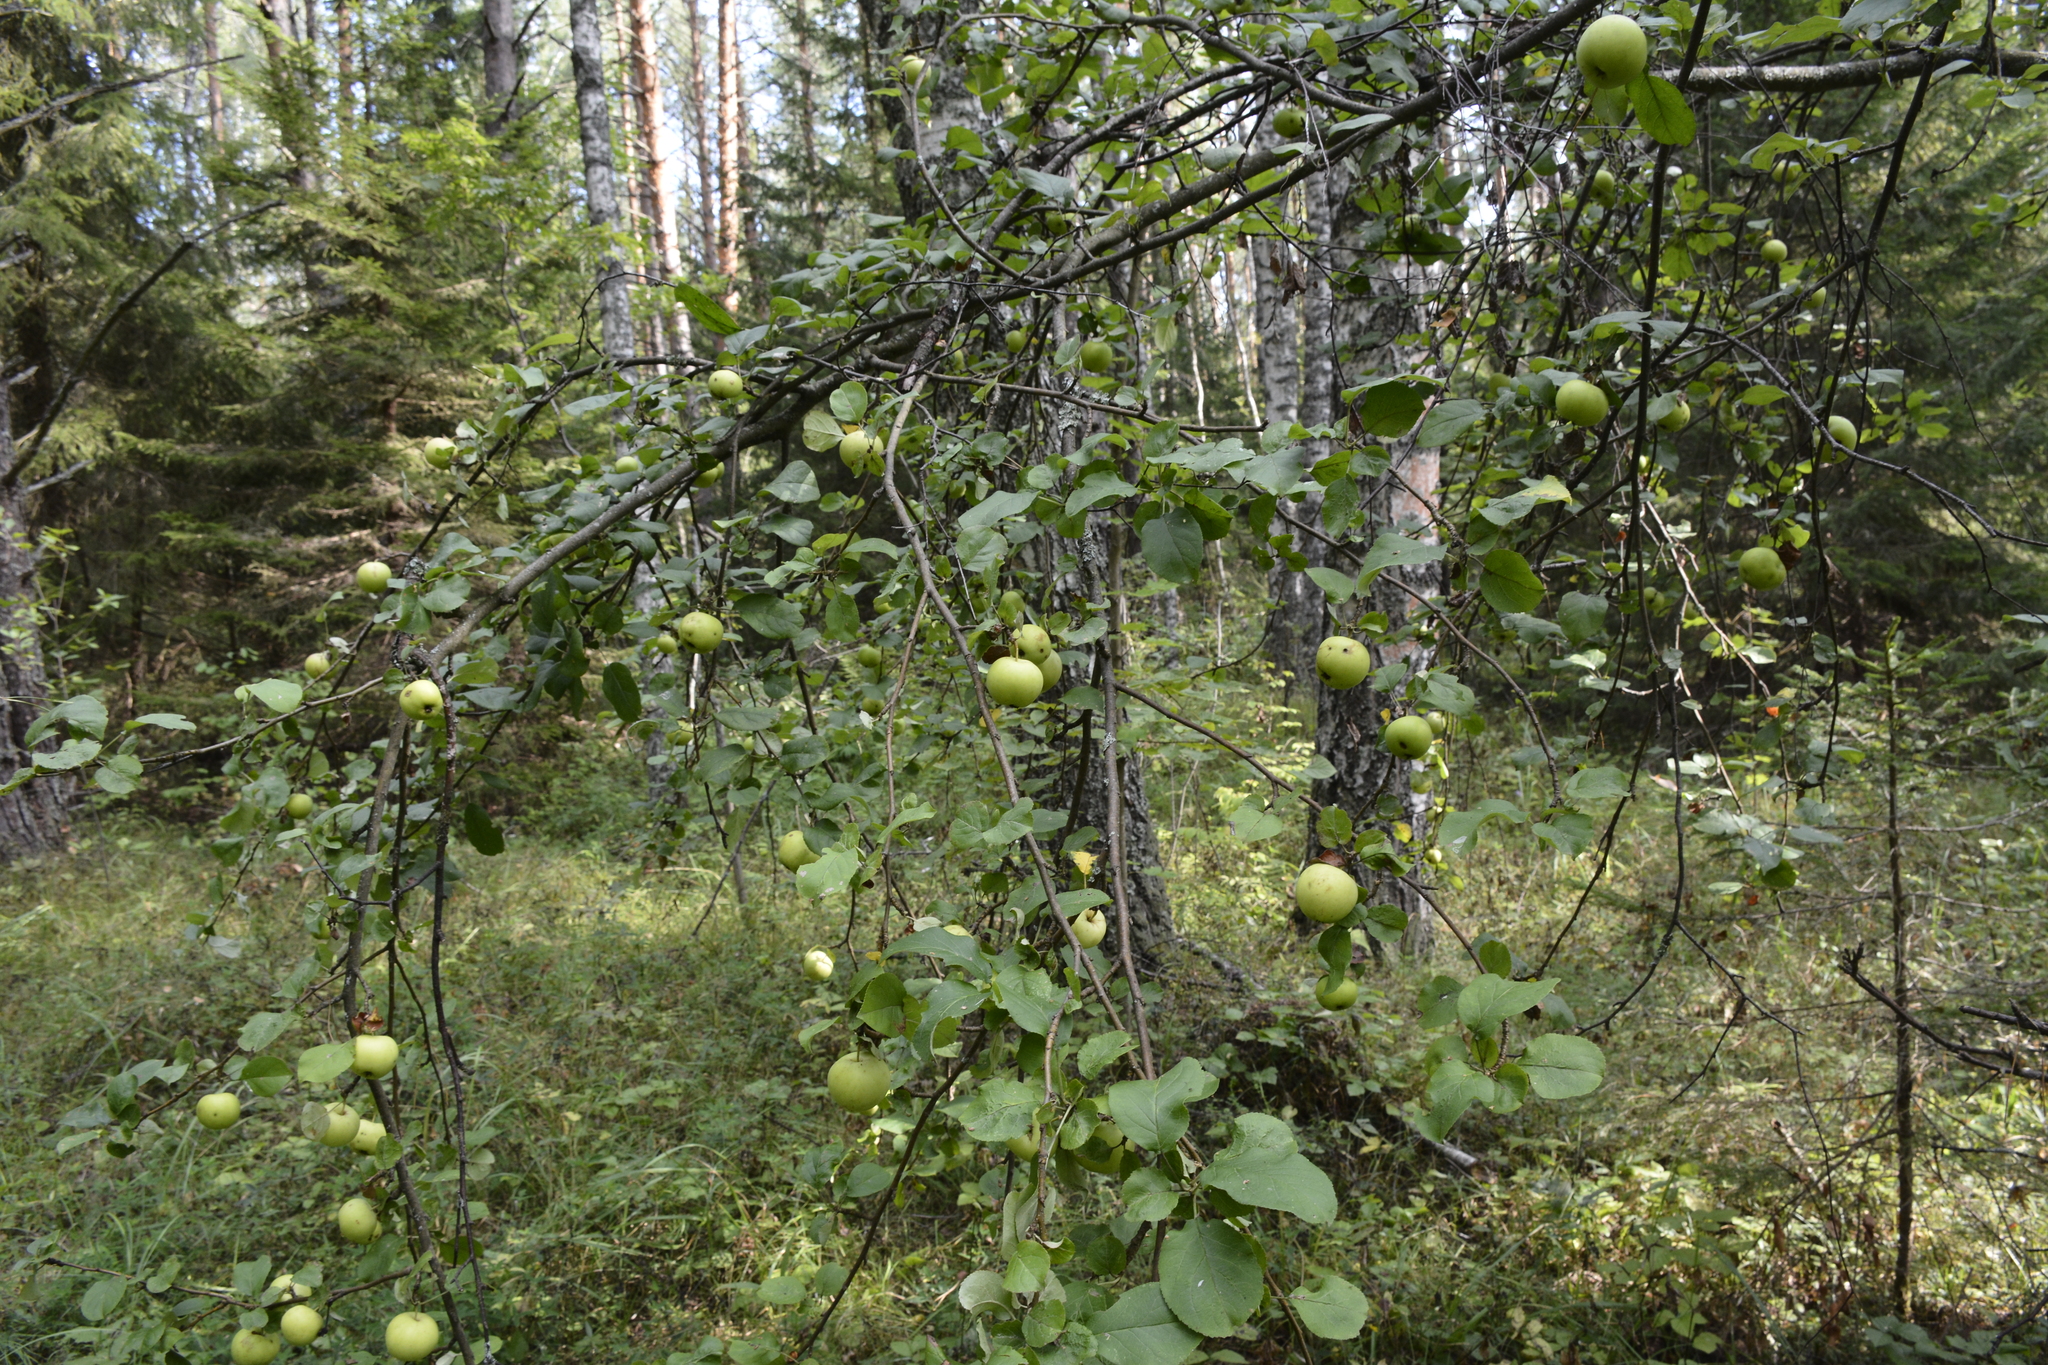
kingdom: Plantae
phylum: Tracheophyta
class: Magnoliopsida
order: Rosales
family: Rosaceae
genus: Malus
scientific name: Malus sylvestris
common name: Crab apple
